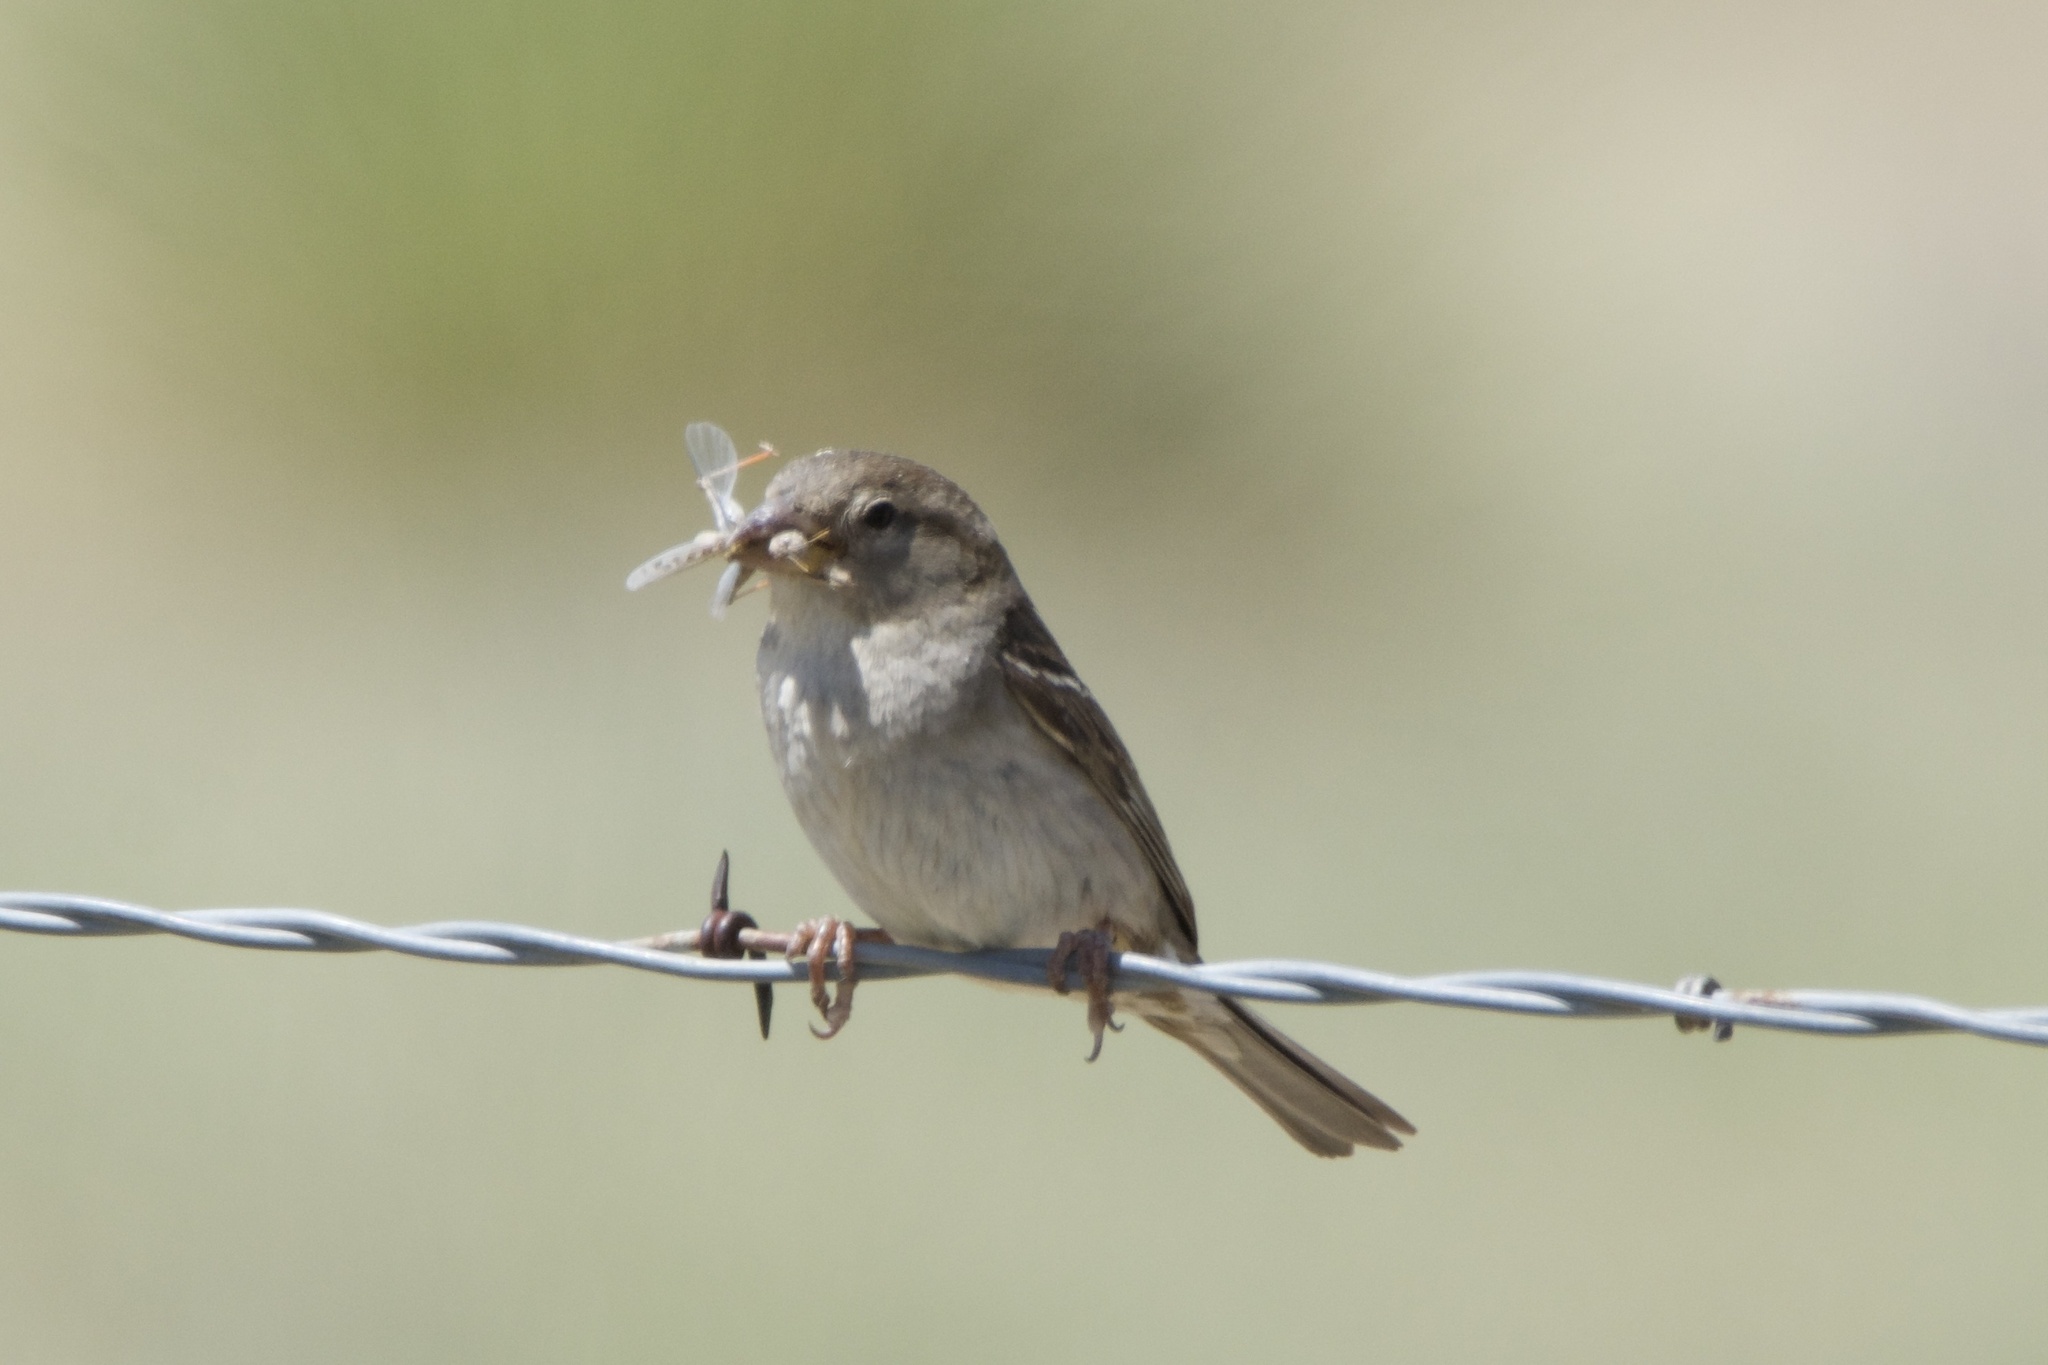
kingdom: Animalia
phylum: Chordata
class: Aves
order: Passeriformes
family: Passeridae
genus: Passer
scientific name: Passer domesticus
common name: House sparrow
